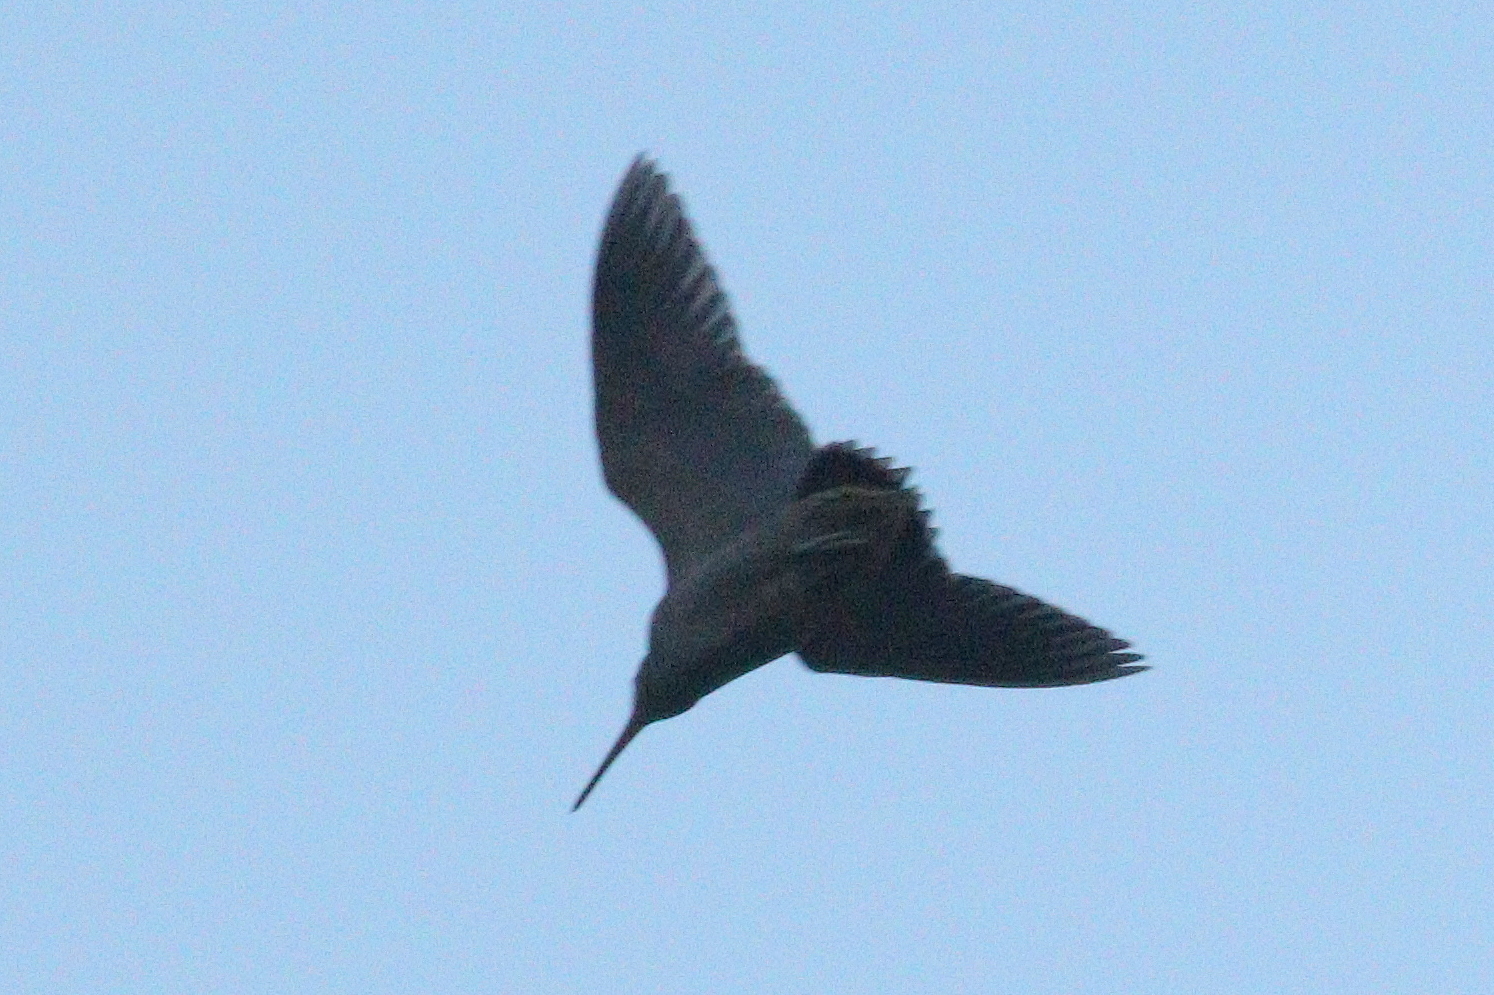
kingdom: Animalia
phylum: Chordata
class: Aves
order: Charadriiformes
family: Scolopacidae
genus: Scolopax
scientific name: Scolopax rusticola
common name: Eurasian woodcock
